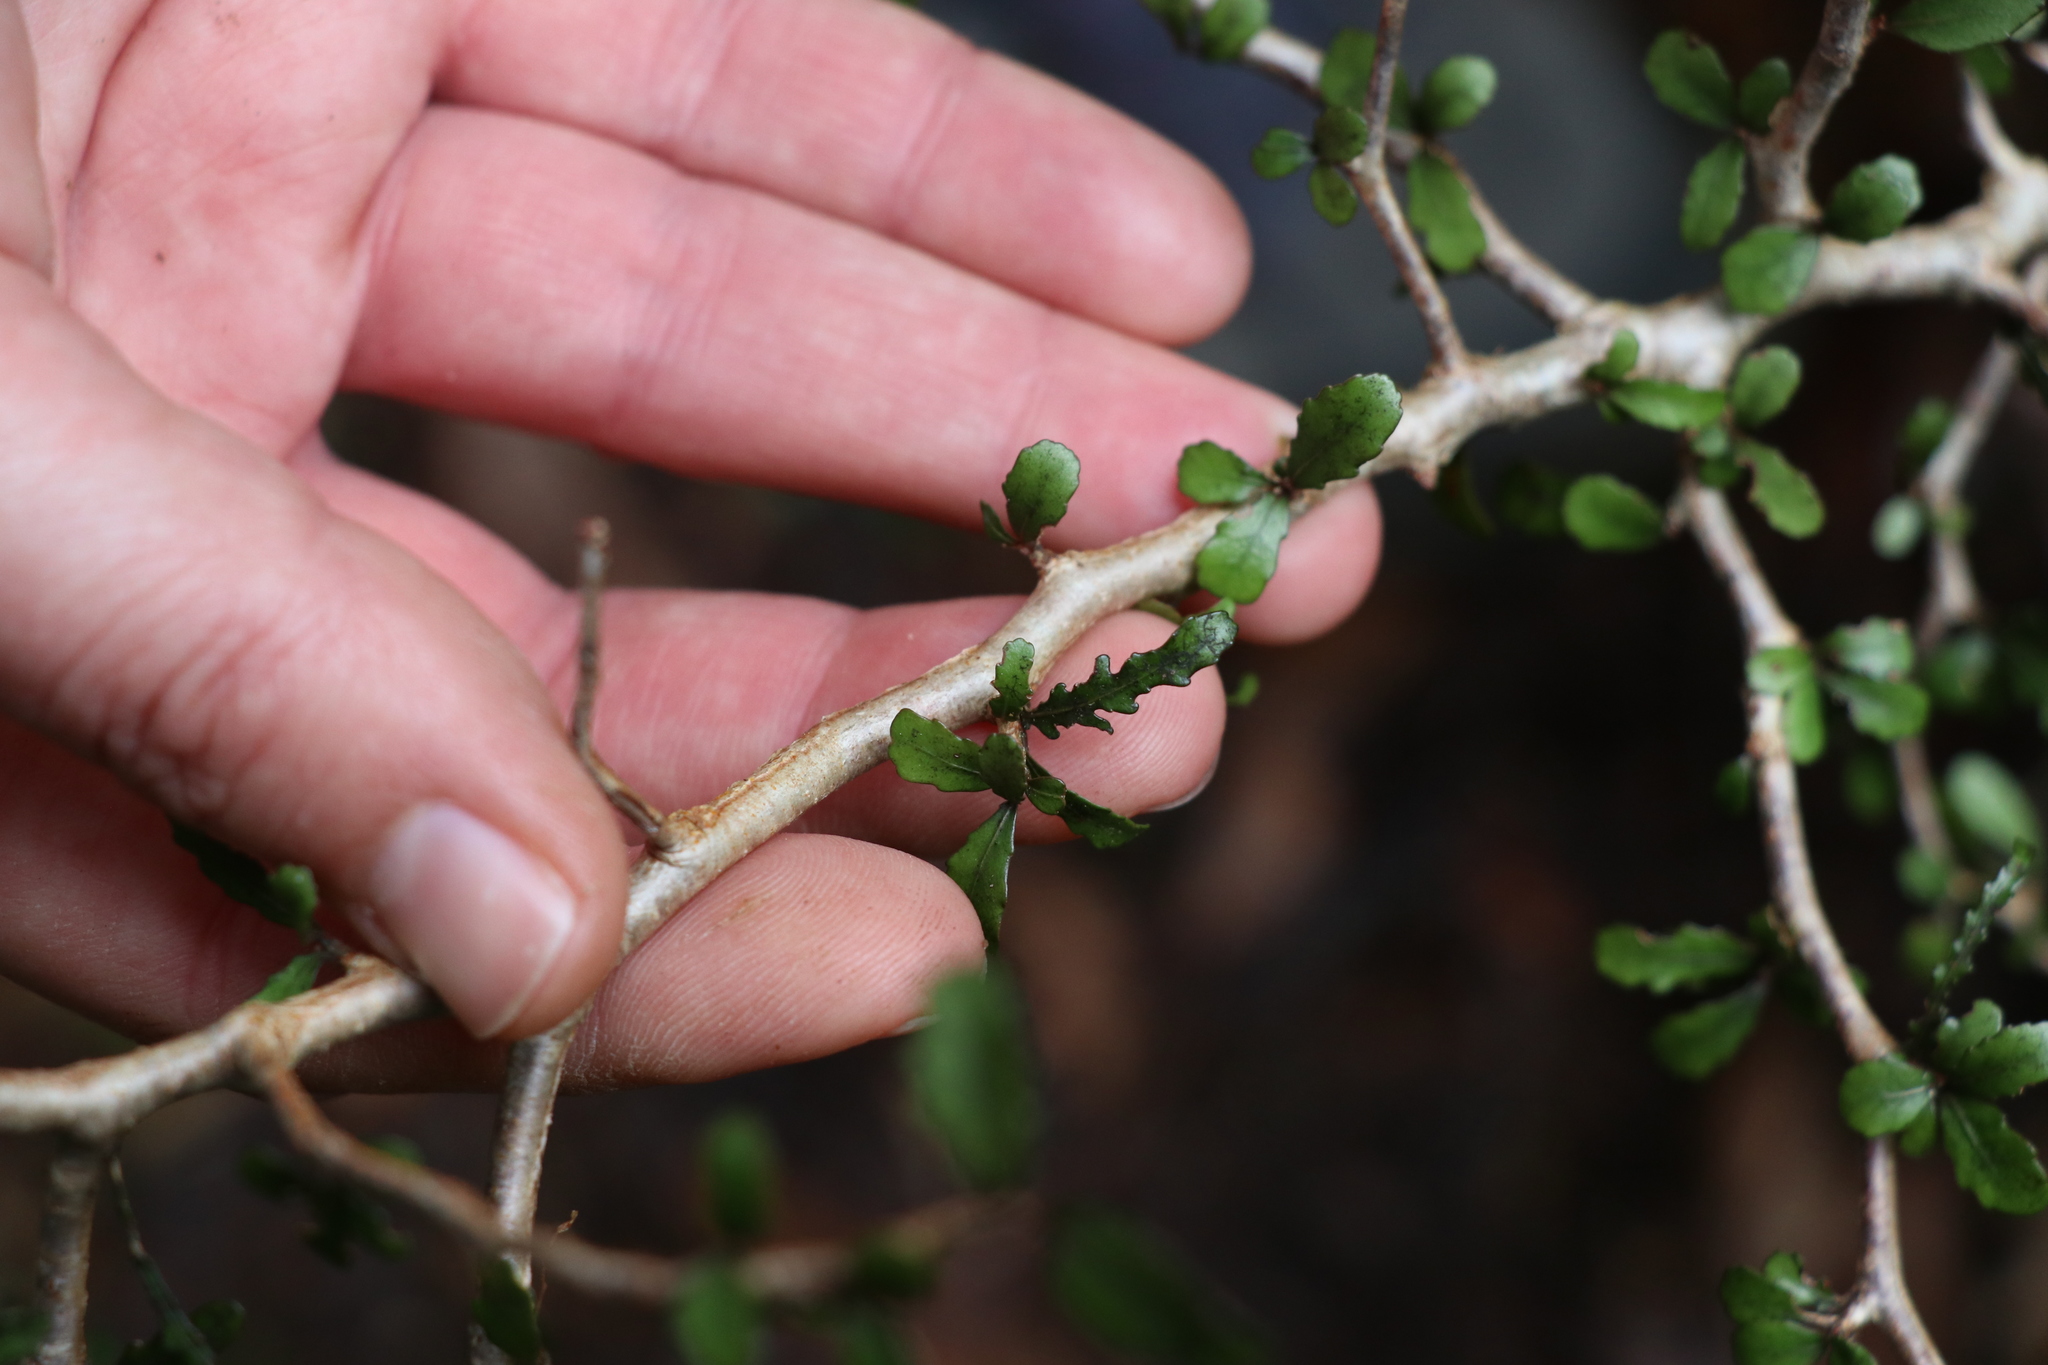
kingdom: Plantae
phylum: Tracheophyta
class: Magnoliopsida
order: Oxalidales
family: Elaeocarpaceae
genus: Elaeocarpus
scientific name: Elaeocarpus hookerianus
